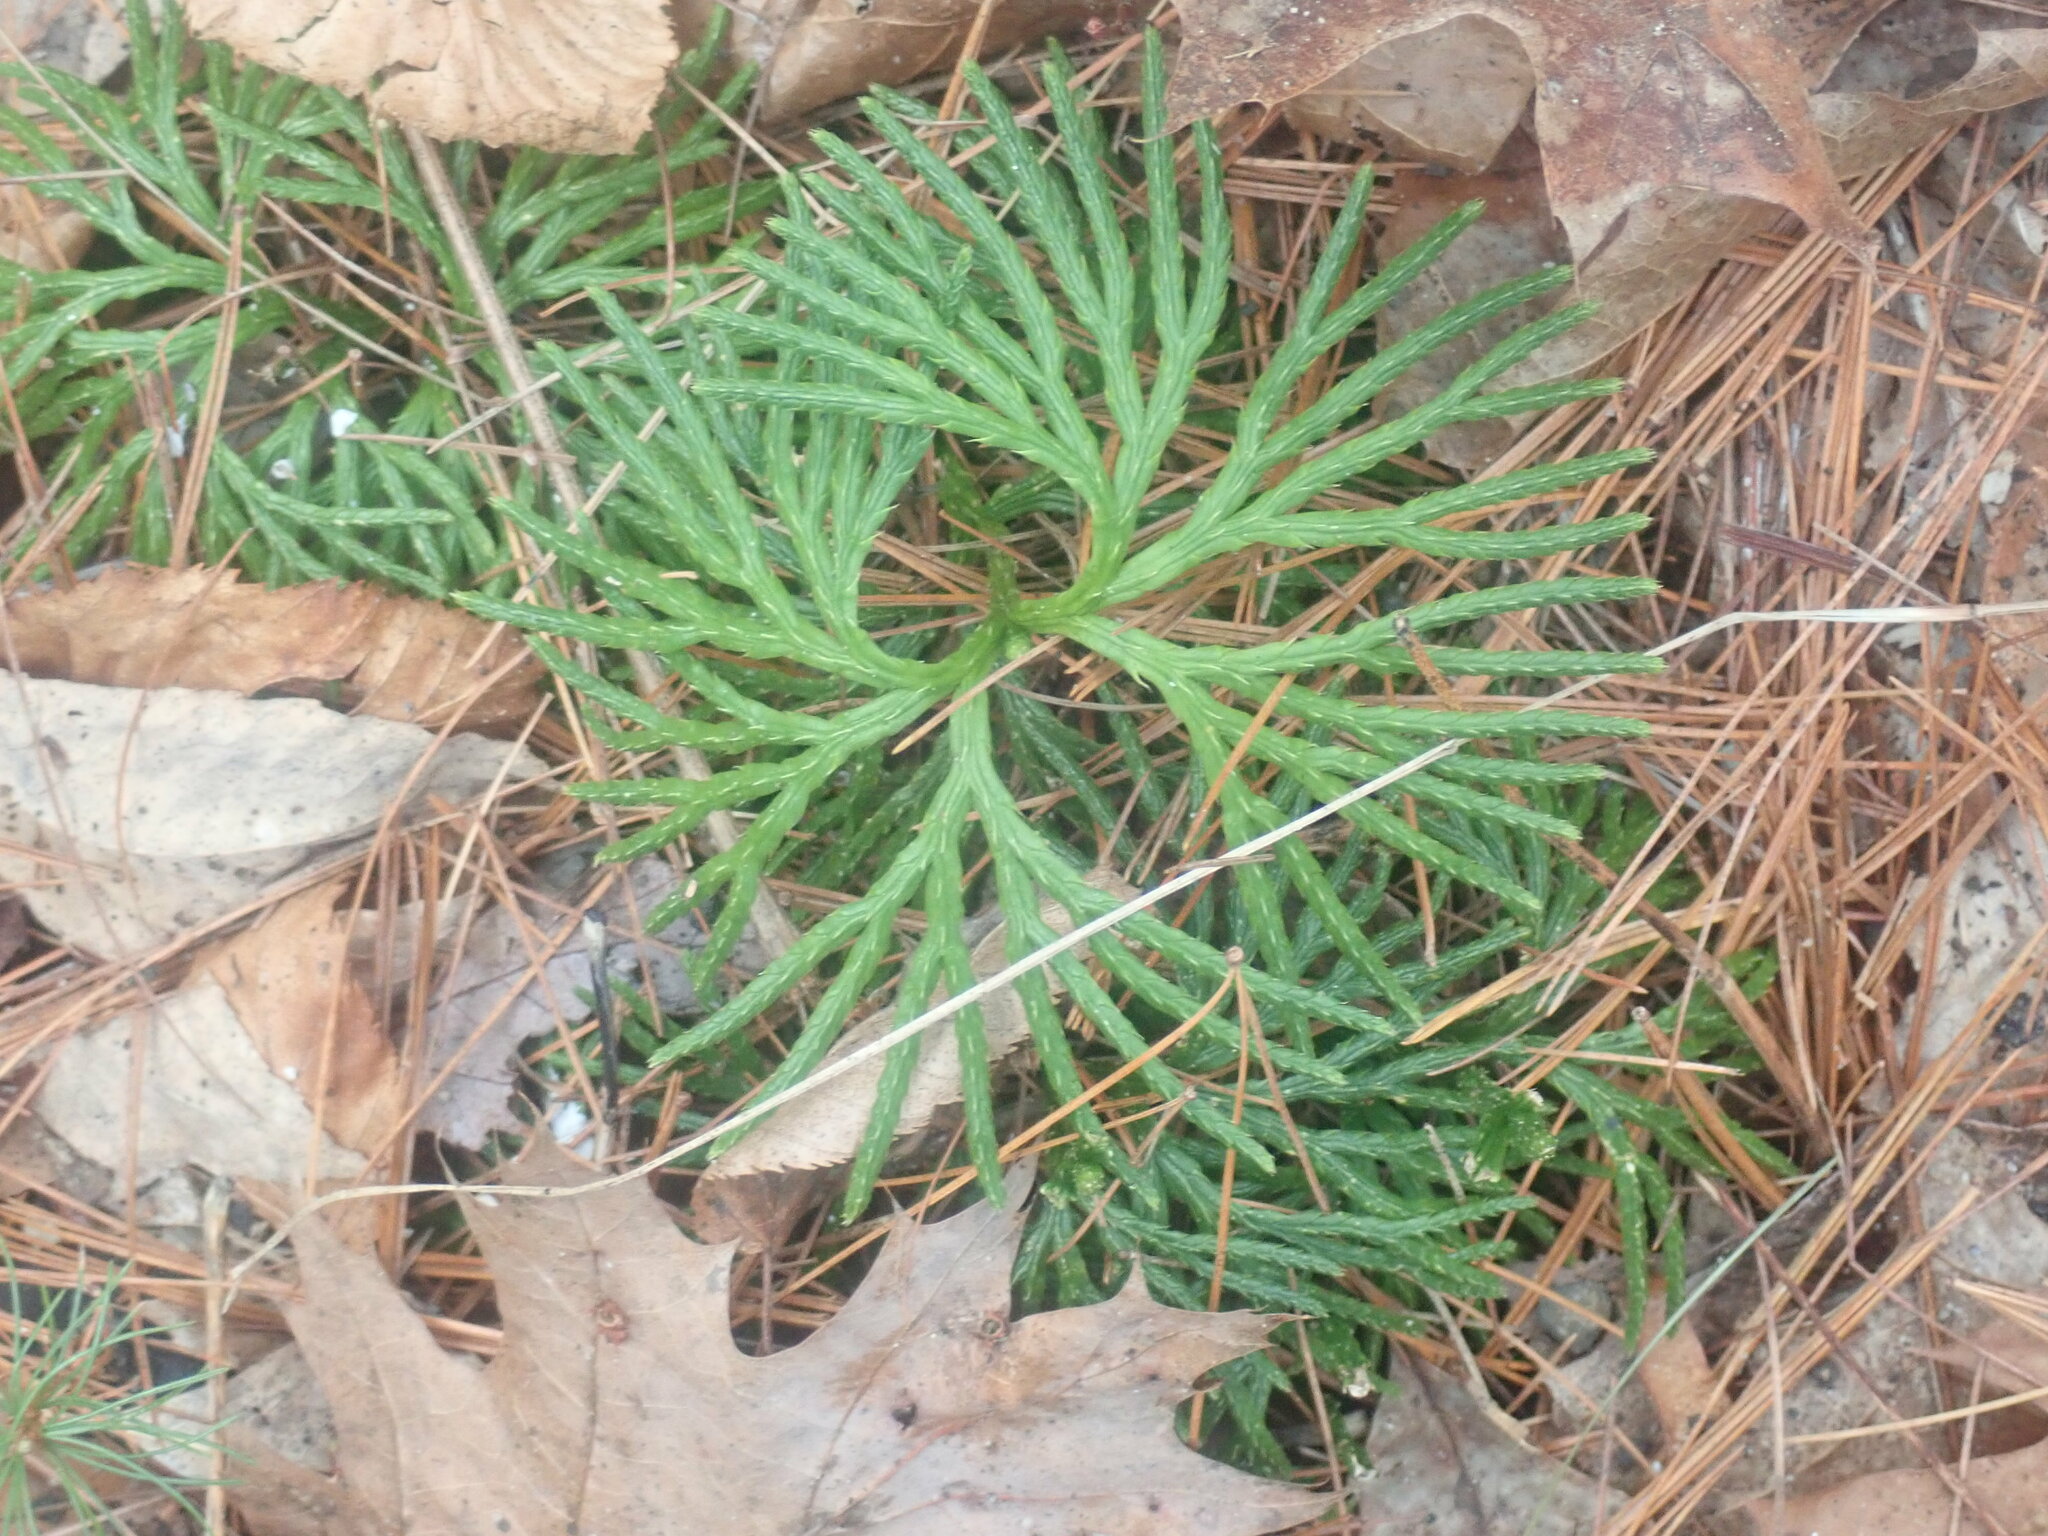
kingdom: Plantae
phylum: Tracheophyta
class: Lycopodiopsida
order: Lycopodiales
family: Lycopodiaceae
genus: Diphasiastrum
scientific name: Diphasiastrum digitatum
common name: Southern running-pine
